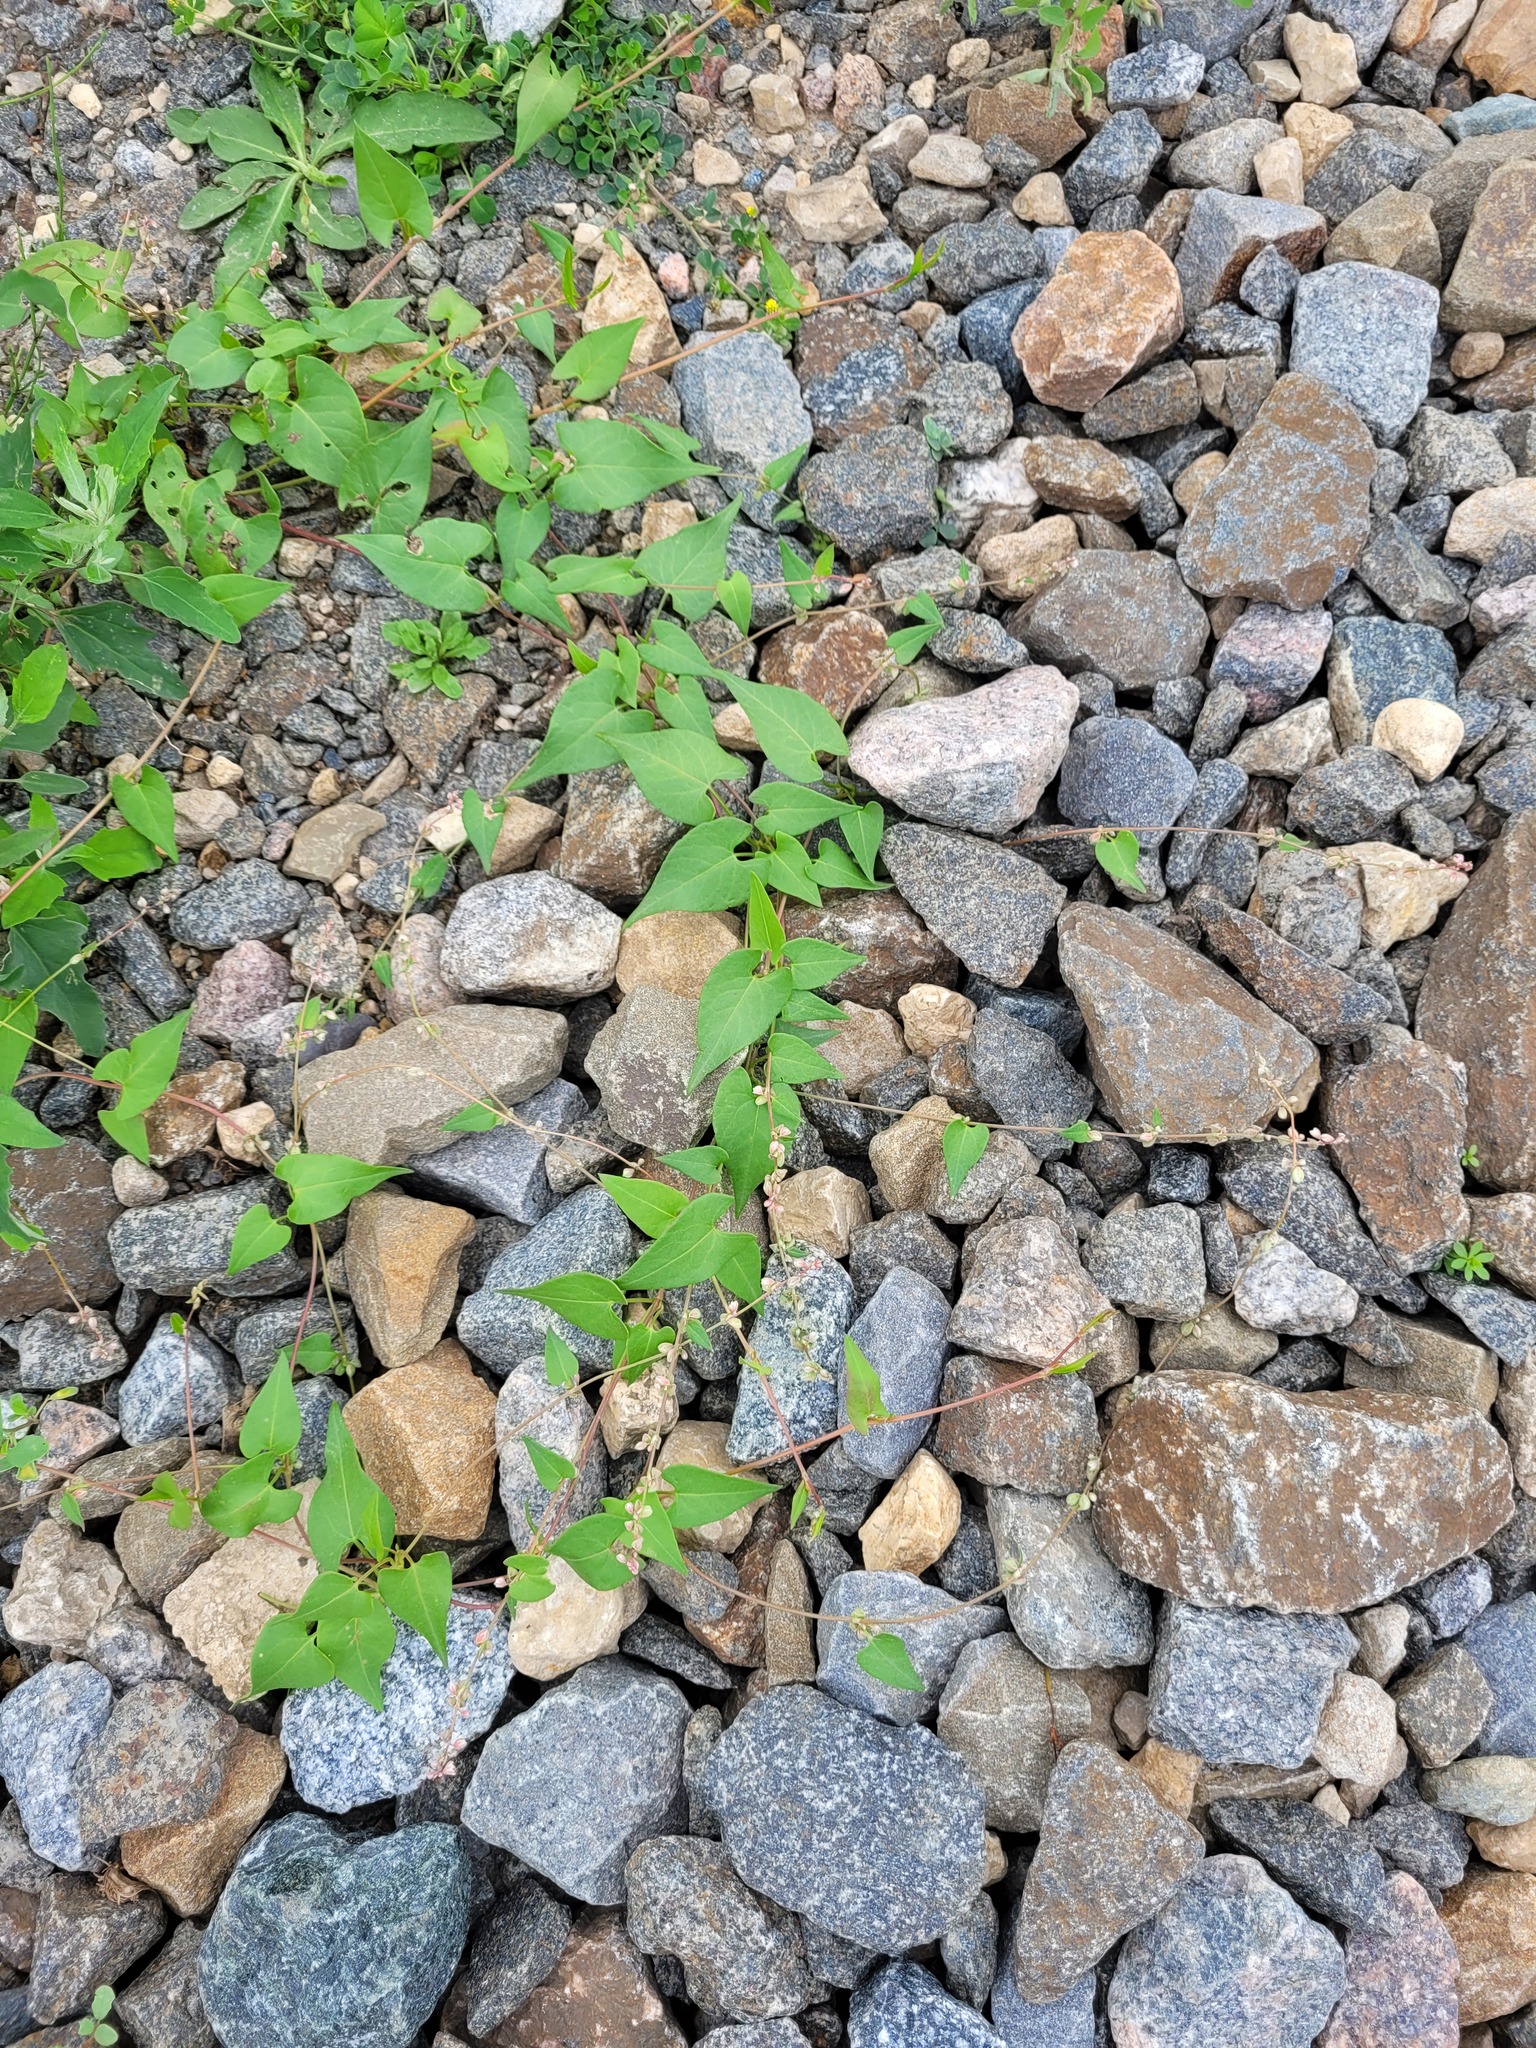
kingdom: Plantae
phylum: Tracheophyta
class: Magnoliopsida
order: Caryophyllales
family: Polygonaceae
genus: Fallopia
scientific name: Fallopia convolvulus
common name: Black bindweed
